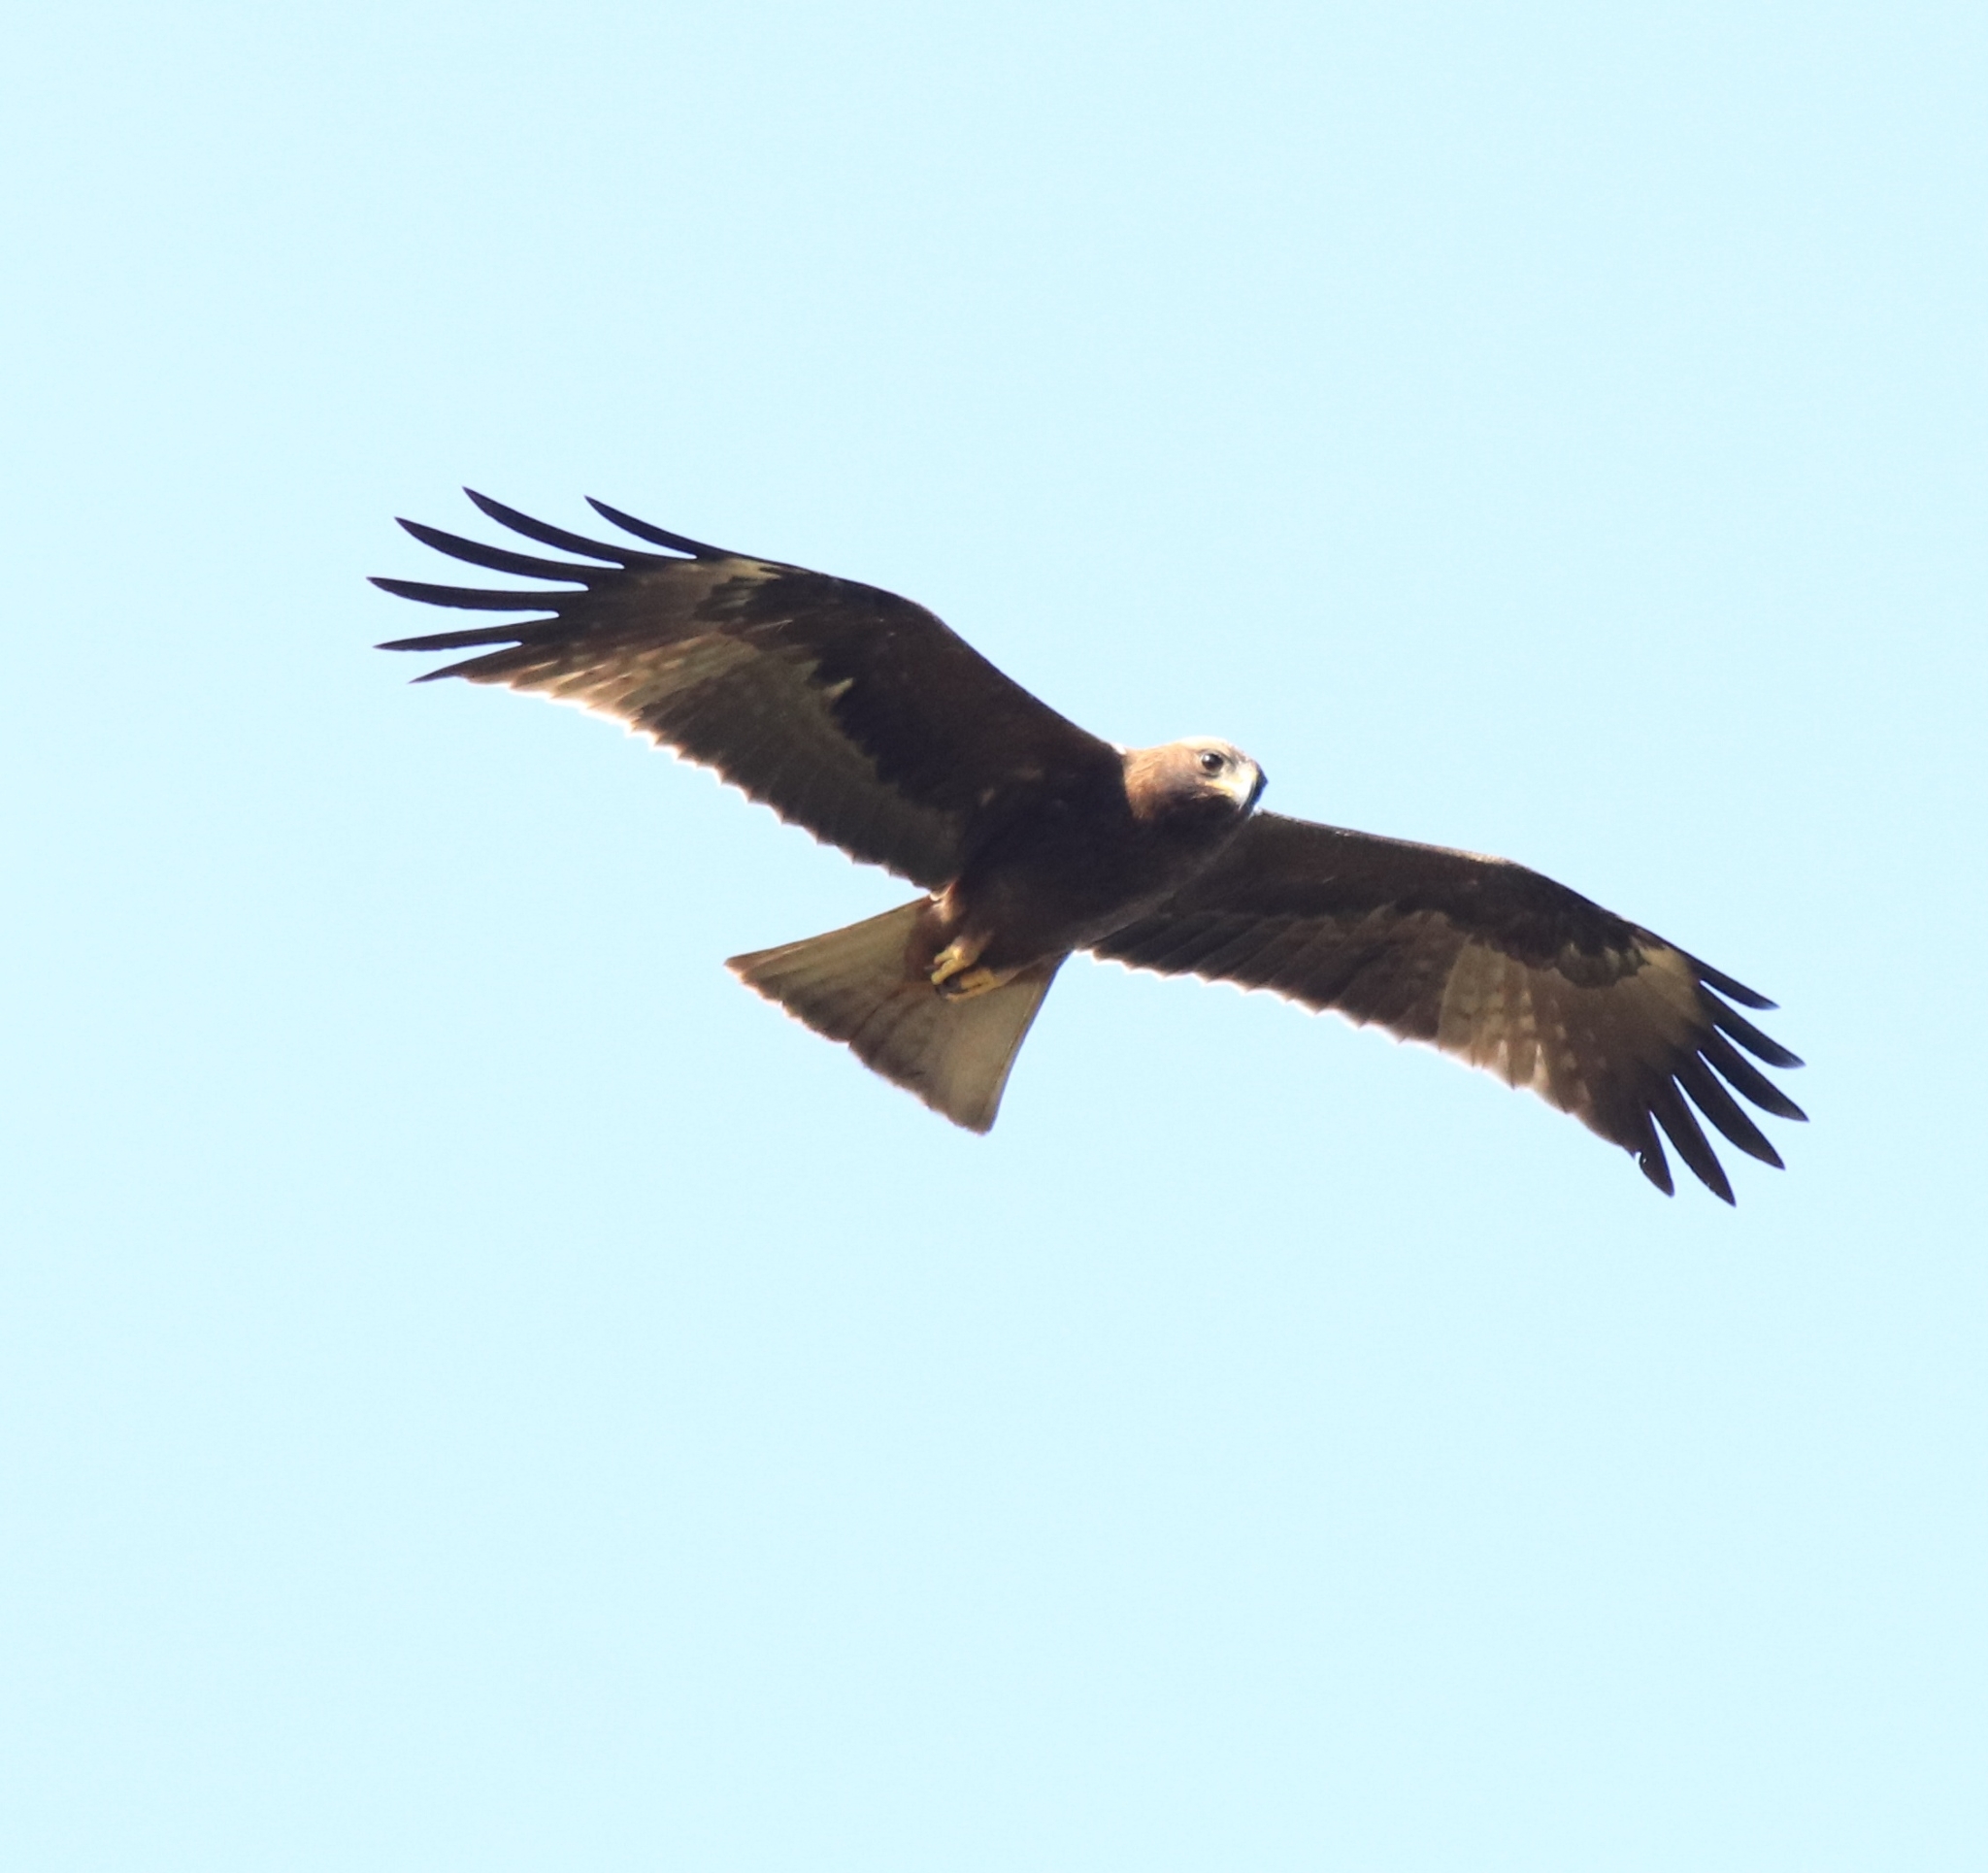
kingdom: Animalia
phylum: Chordata
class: Aves
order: Accipitriformes
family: Accipitridae
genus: Hieraaetus
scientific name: Hieraaetus pennatus
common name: Booted eagle
